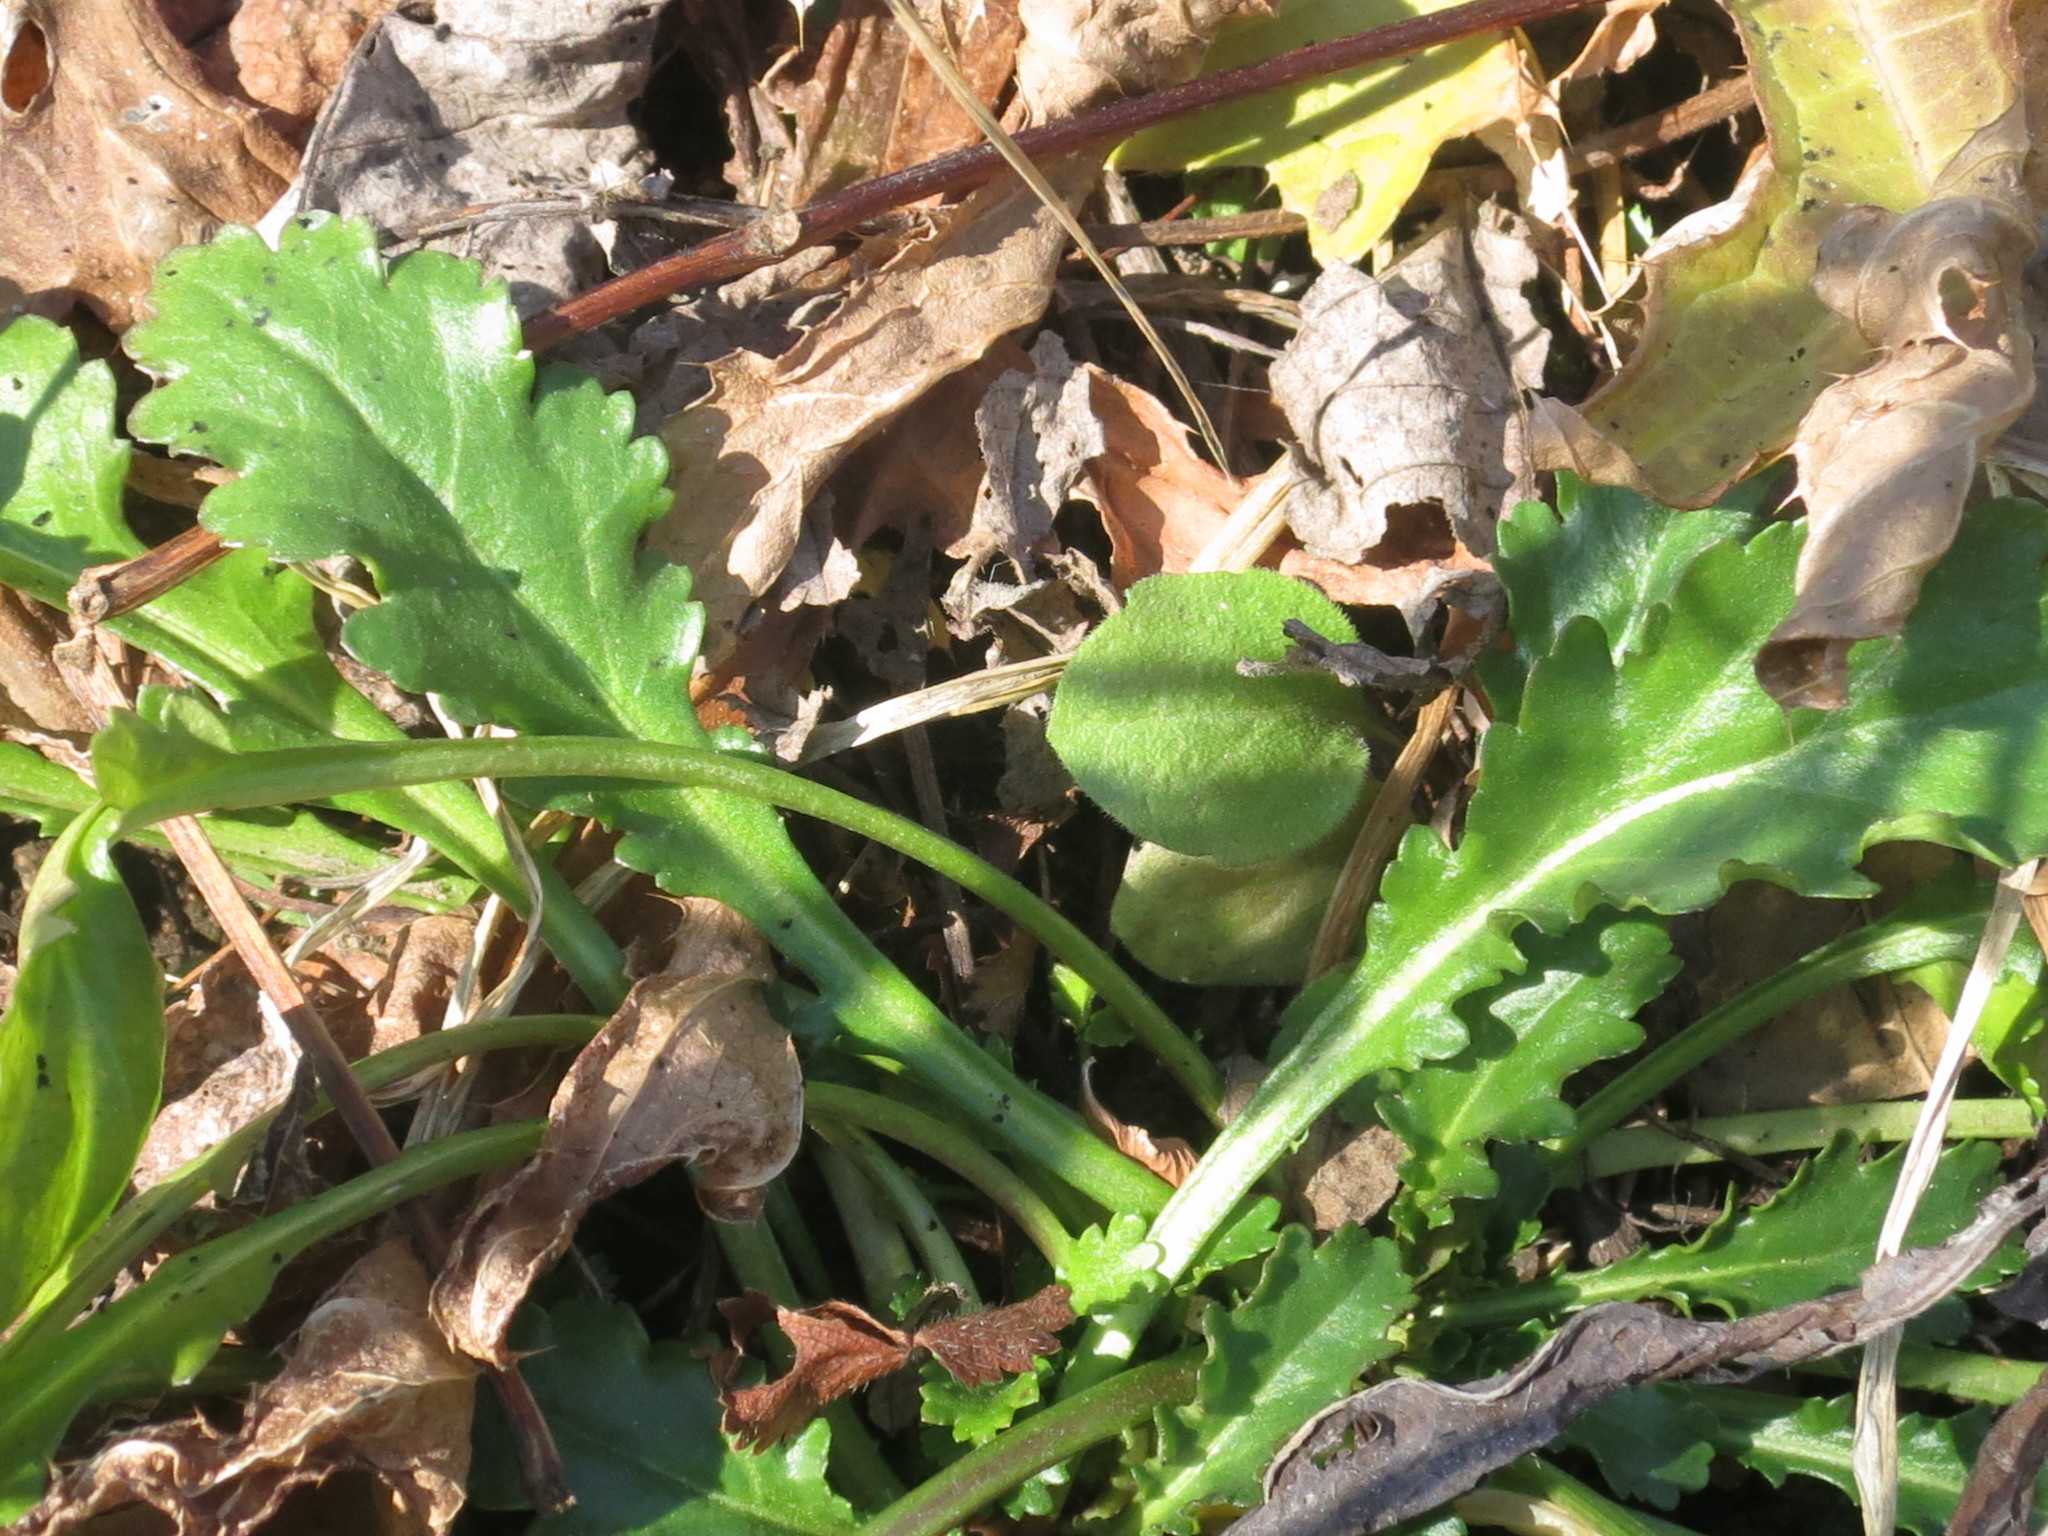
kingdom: Plantae
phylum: Tracheophyta
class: Magnoliopsida
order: Asterales
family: Asteraceae
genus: Leucanthemum
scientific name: Leucanthemum vulgare
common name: Oxeye daisy
